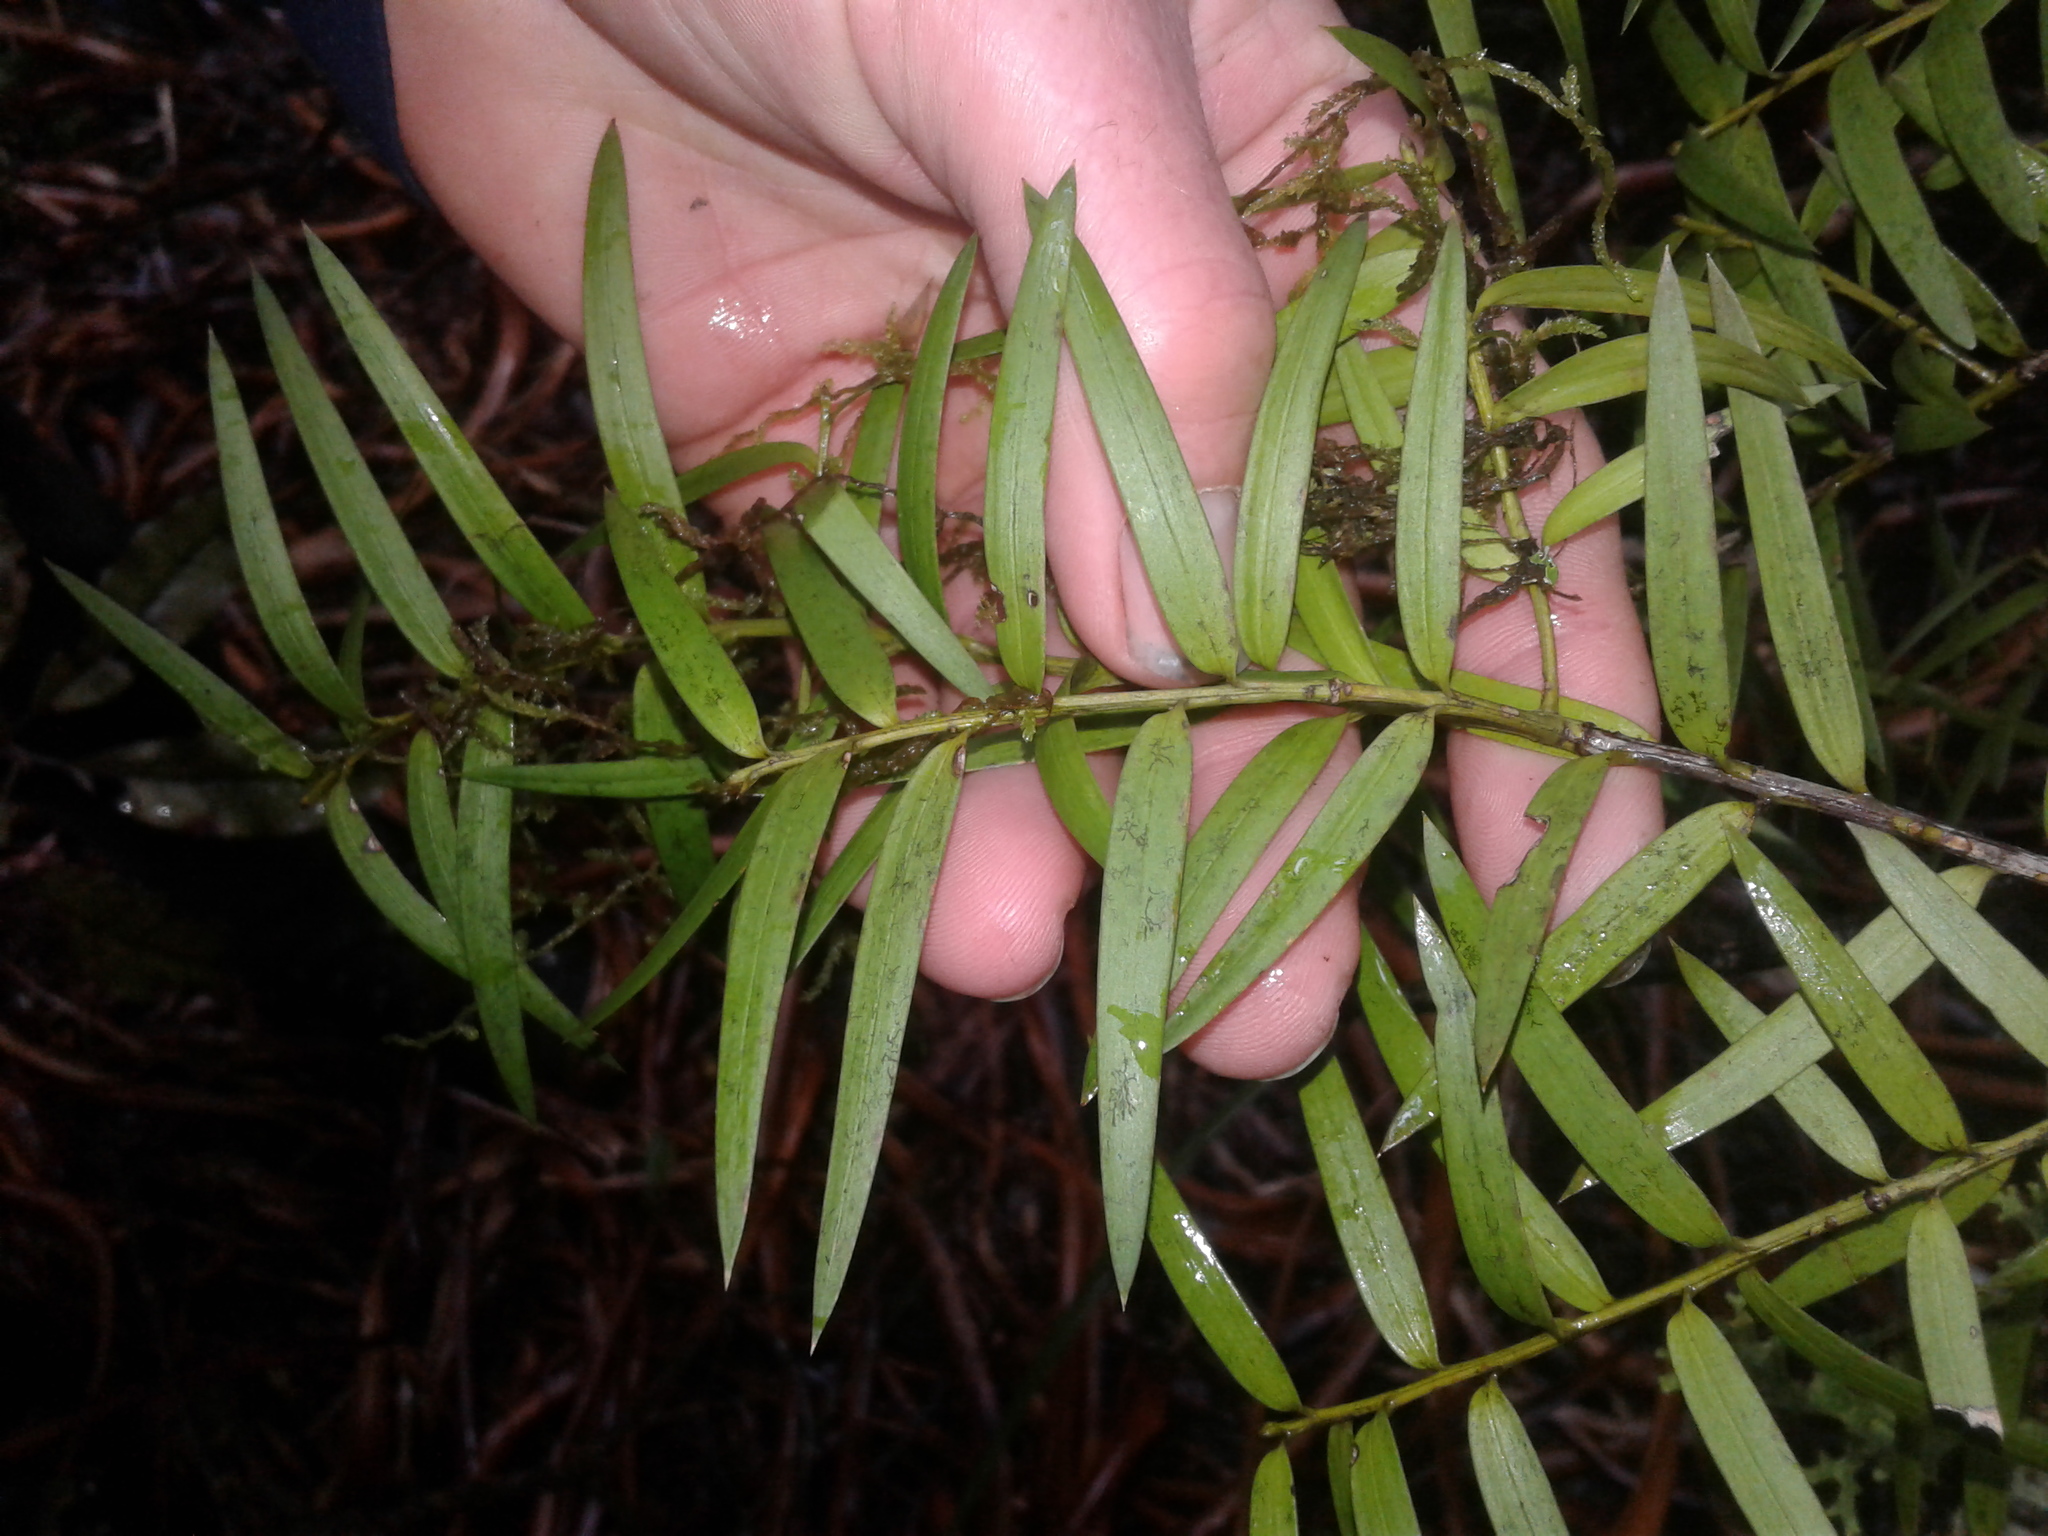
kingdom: Plantae
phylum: Tracheophyta
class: Pinopsida
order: Pinales
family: Podocarpaceae
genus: Podocarpus
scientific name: Podocarpus laetus
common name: Hall's totara
